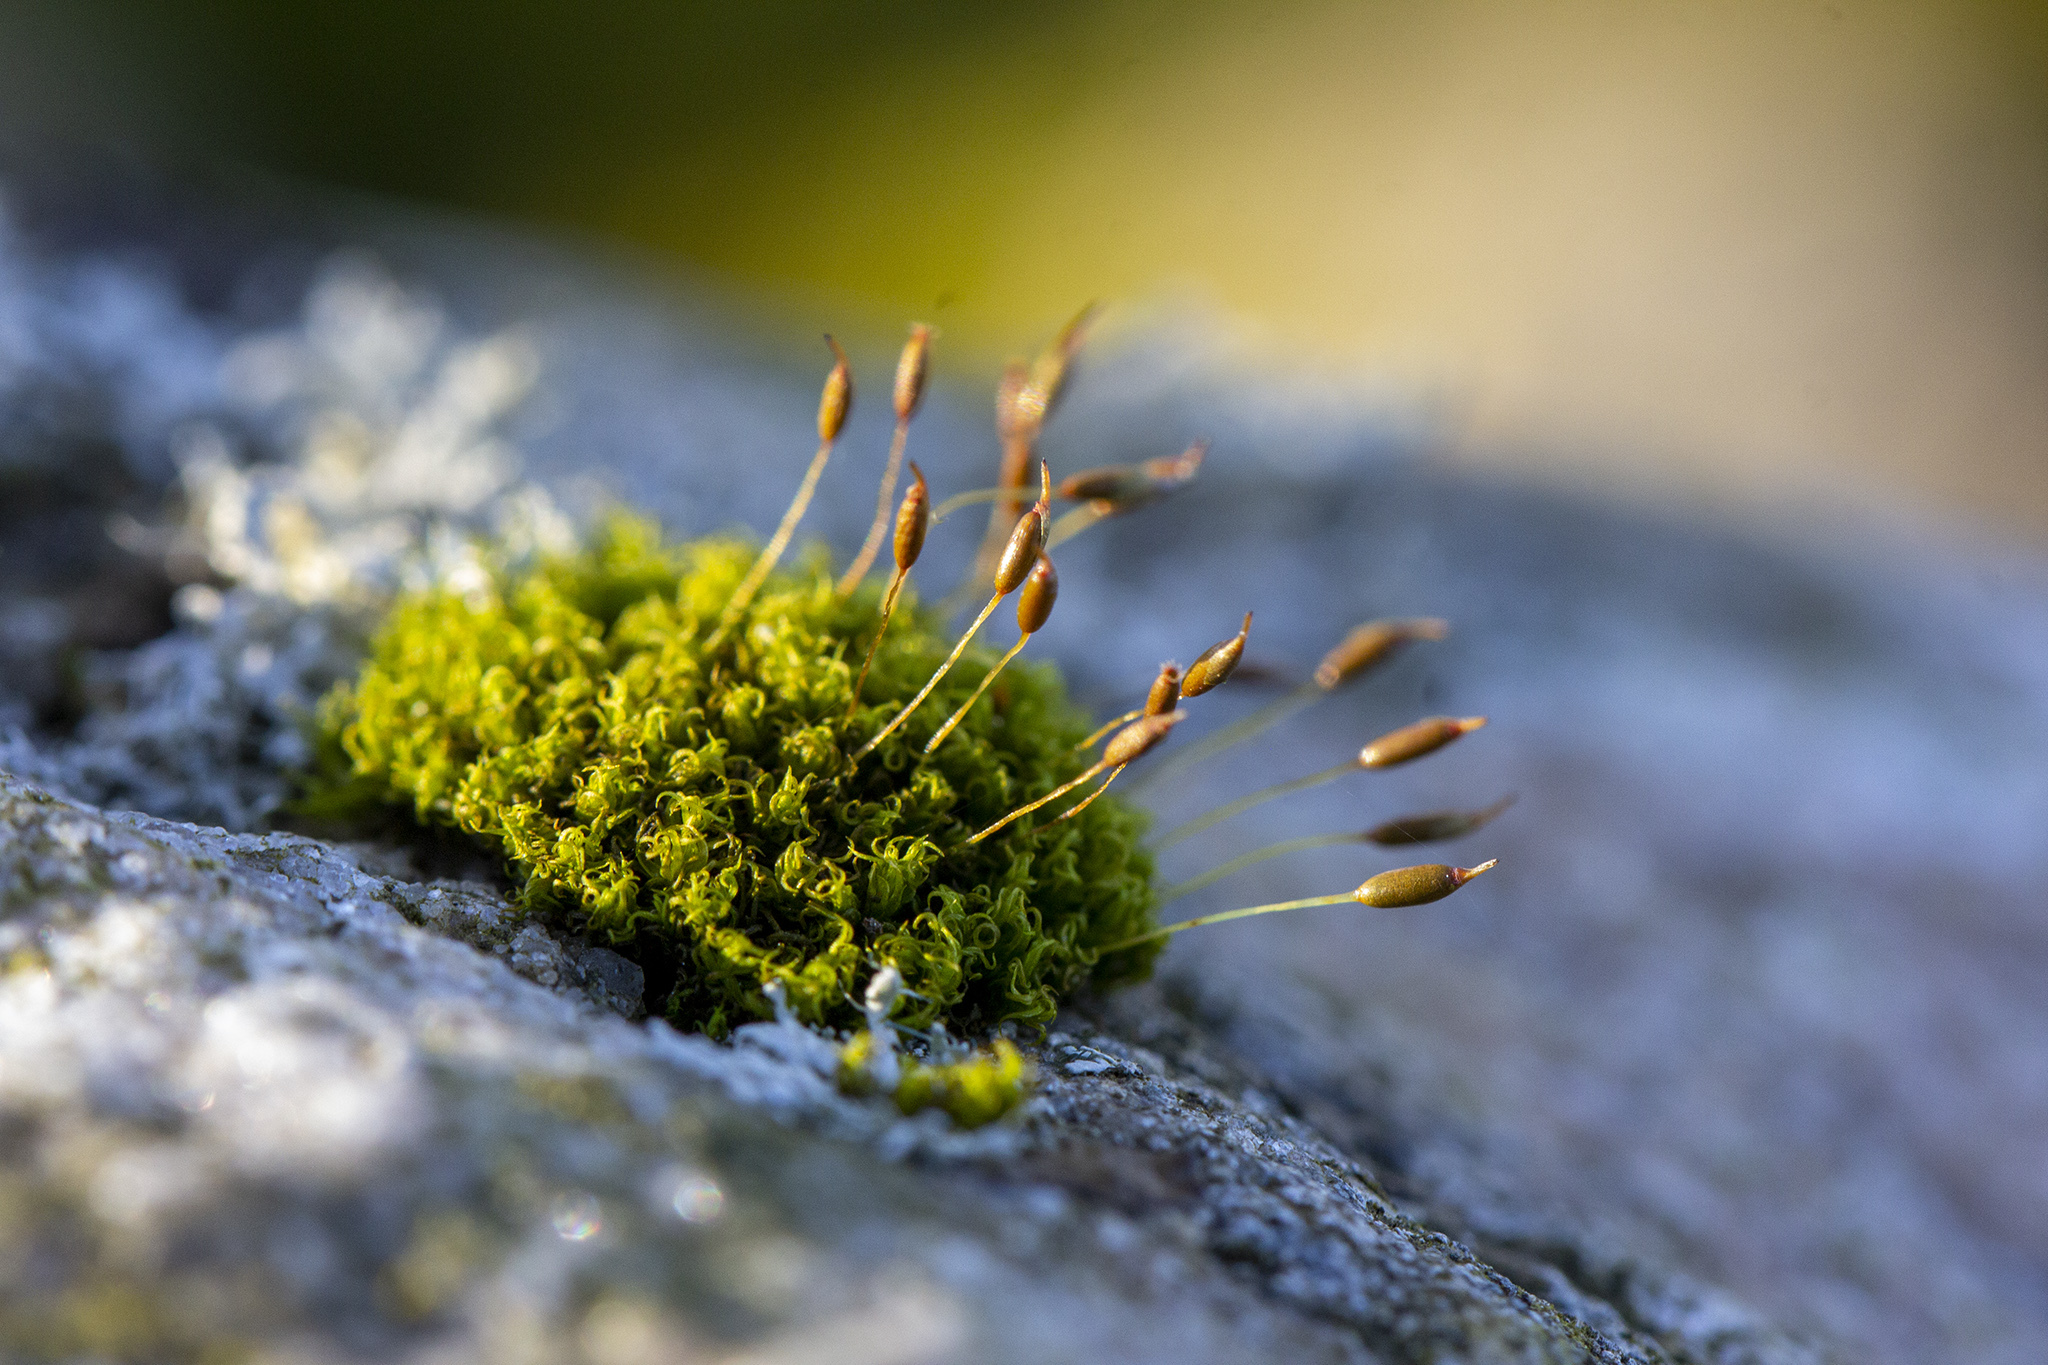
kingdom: Plantae
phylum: Bryophyta
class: Bryopsida
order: Dicranales
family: Rhabdoweisiaceae
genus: Dicranoweisia
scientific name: Dicranoweisia cirrata
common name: Common pincushion
